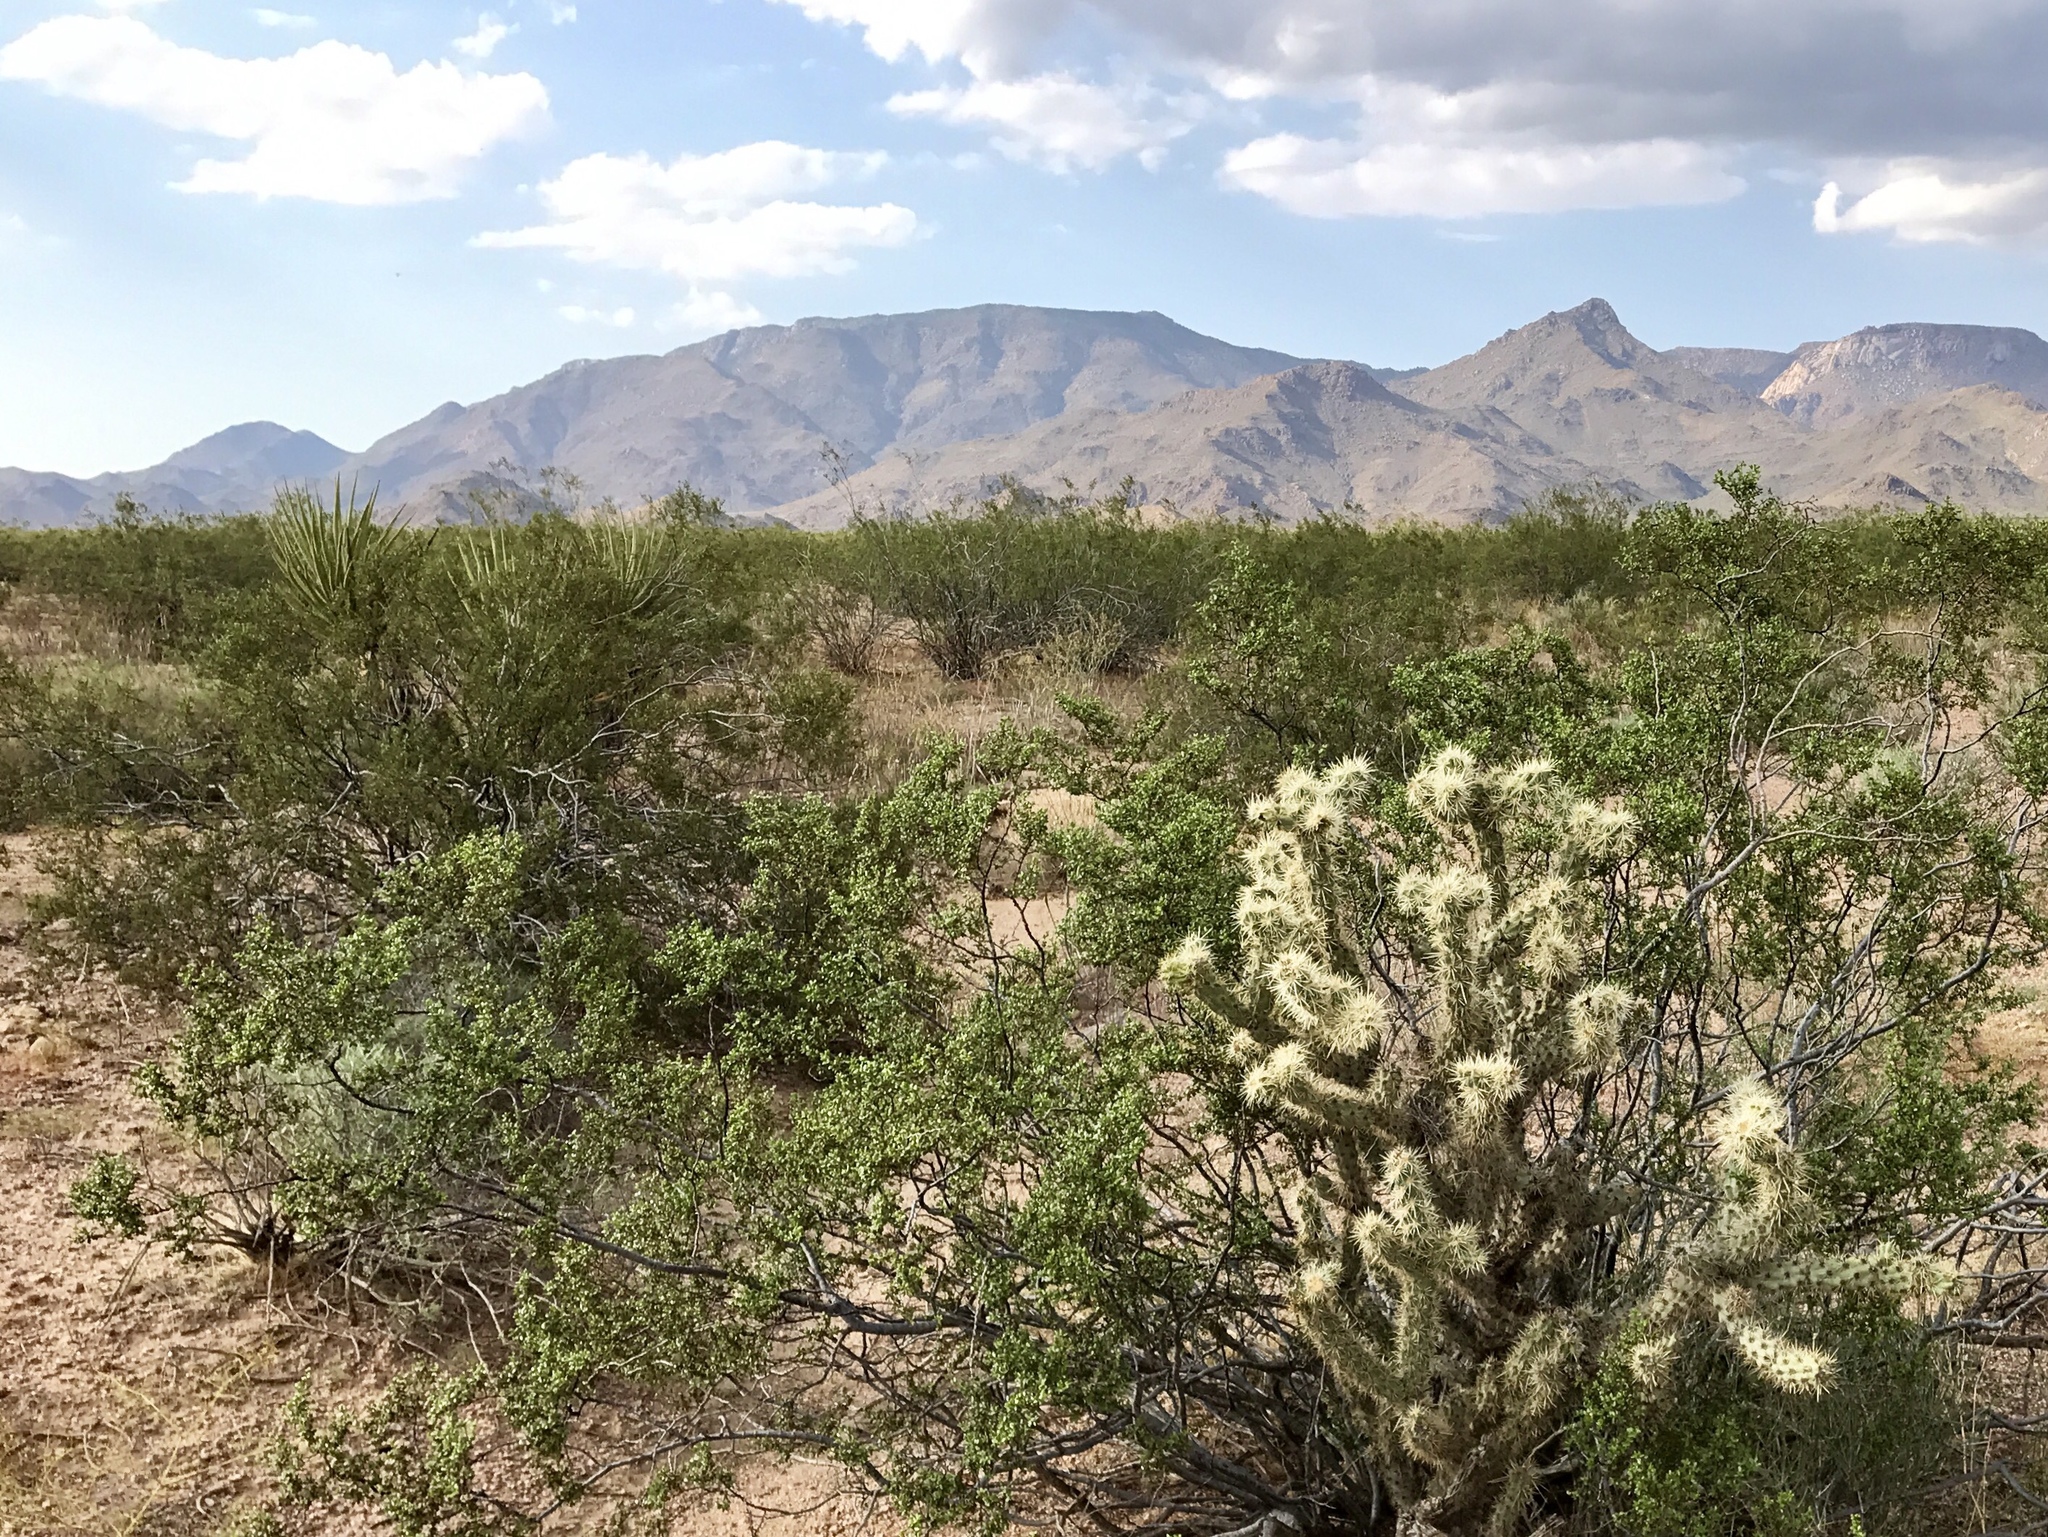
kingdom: Plantae
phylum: Tracheophyta
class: Magnoliopsida
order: Zygophyllales
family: Zygophyllaceae
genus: Larrea
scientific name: Larrea tridentata
